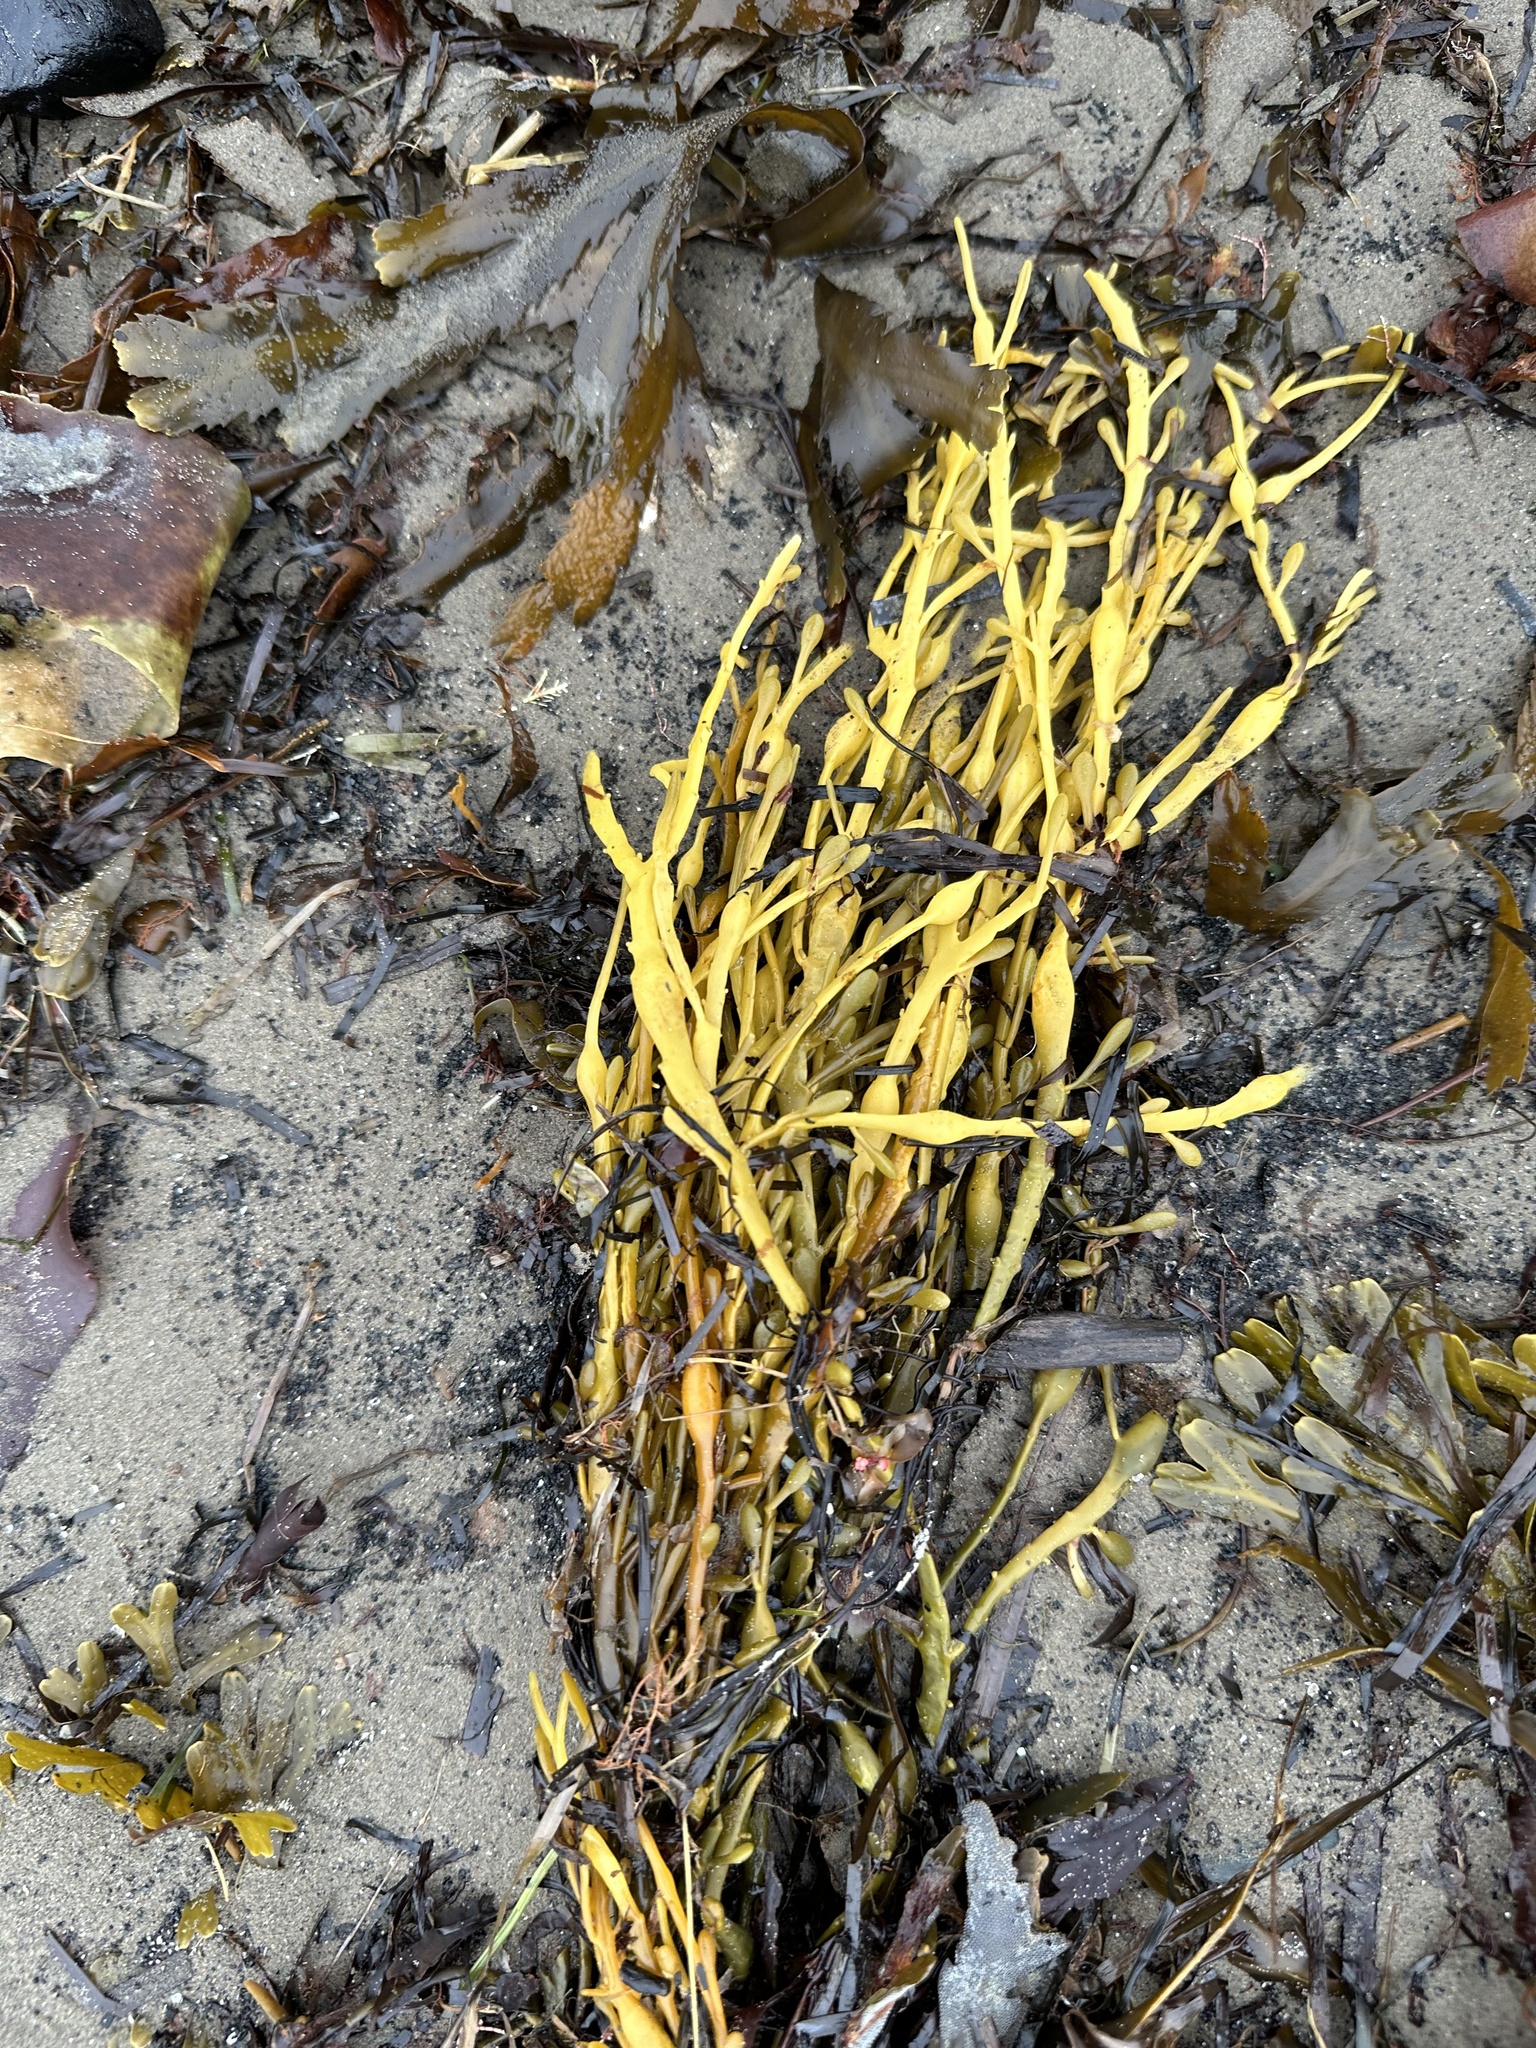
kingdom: Chromista
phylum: Ochrophyta
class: Phaeophyceae
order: Fucales
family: Fucaceae
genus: Ascophyllum
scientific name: Ascophyllum nodosum
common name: Knotted wrack
